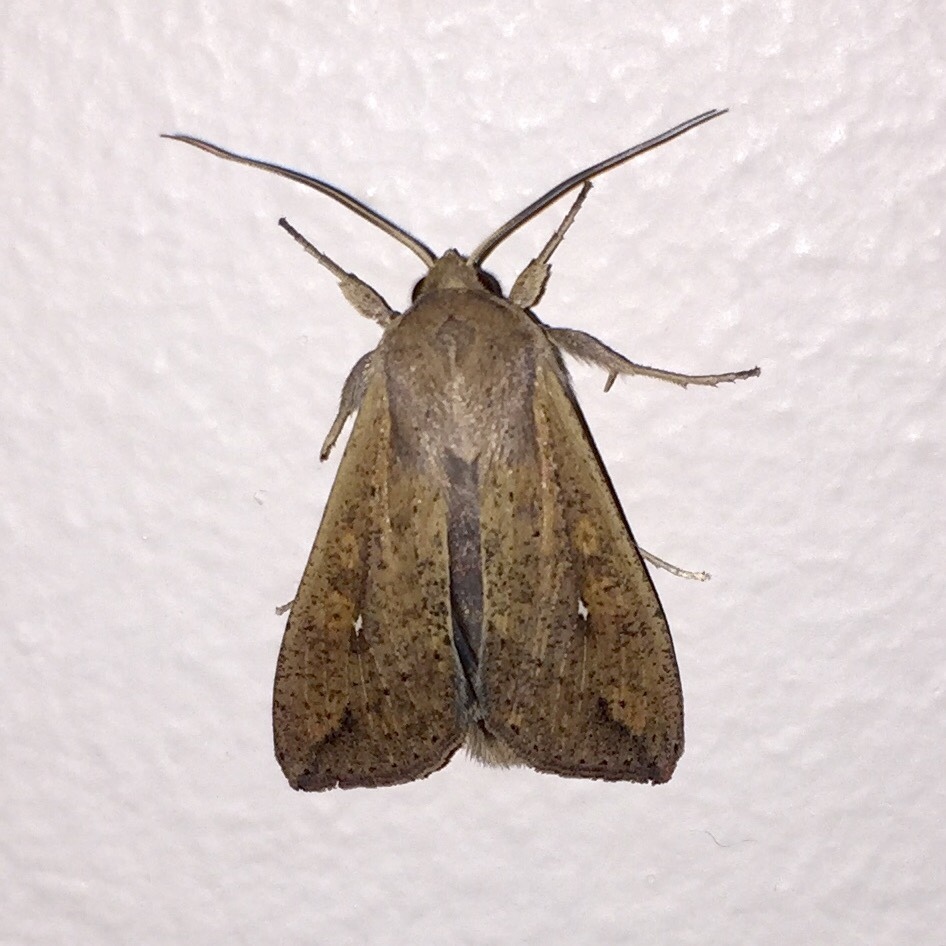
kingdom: Animalia
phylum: Arthropoda
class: Insecta
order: Lepidoptera
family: Noctuidae
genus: Mythimna
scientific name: Mythimna unipuncta
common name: White-speck
